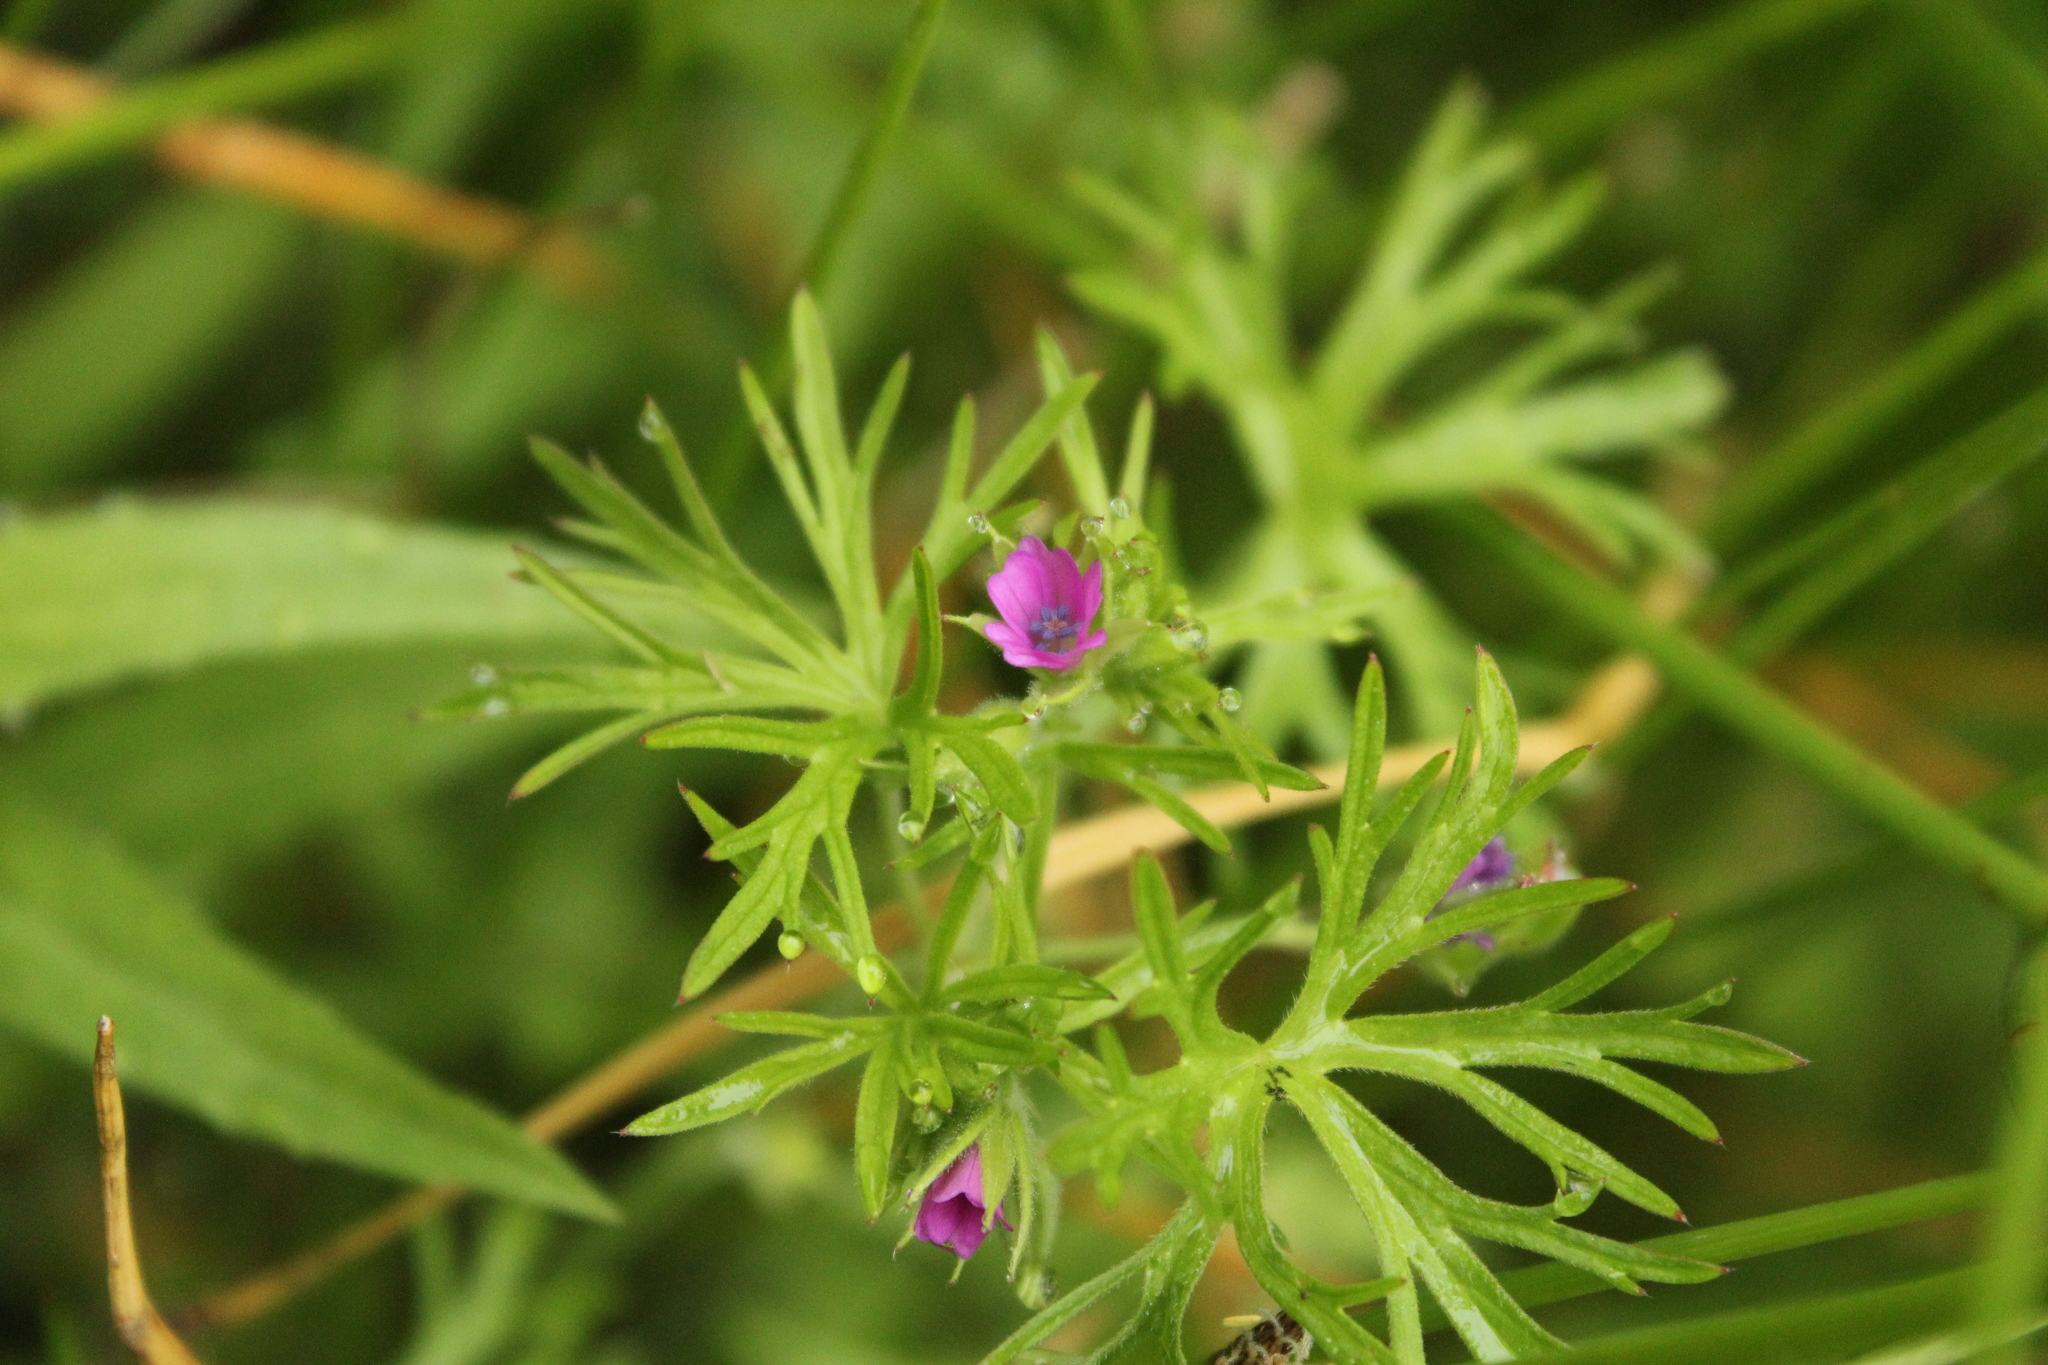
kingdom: Plantae
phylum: Tracheophyta
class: Magnoliopsida
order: Geraniales
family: Geraniaceae
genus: Geranium
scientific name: Geranium dissectum
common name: Cut-leaved crane's-bill
